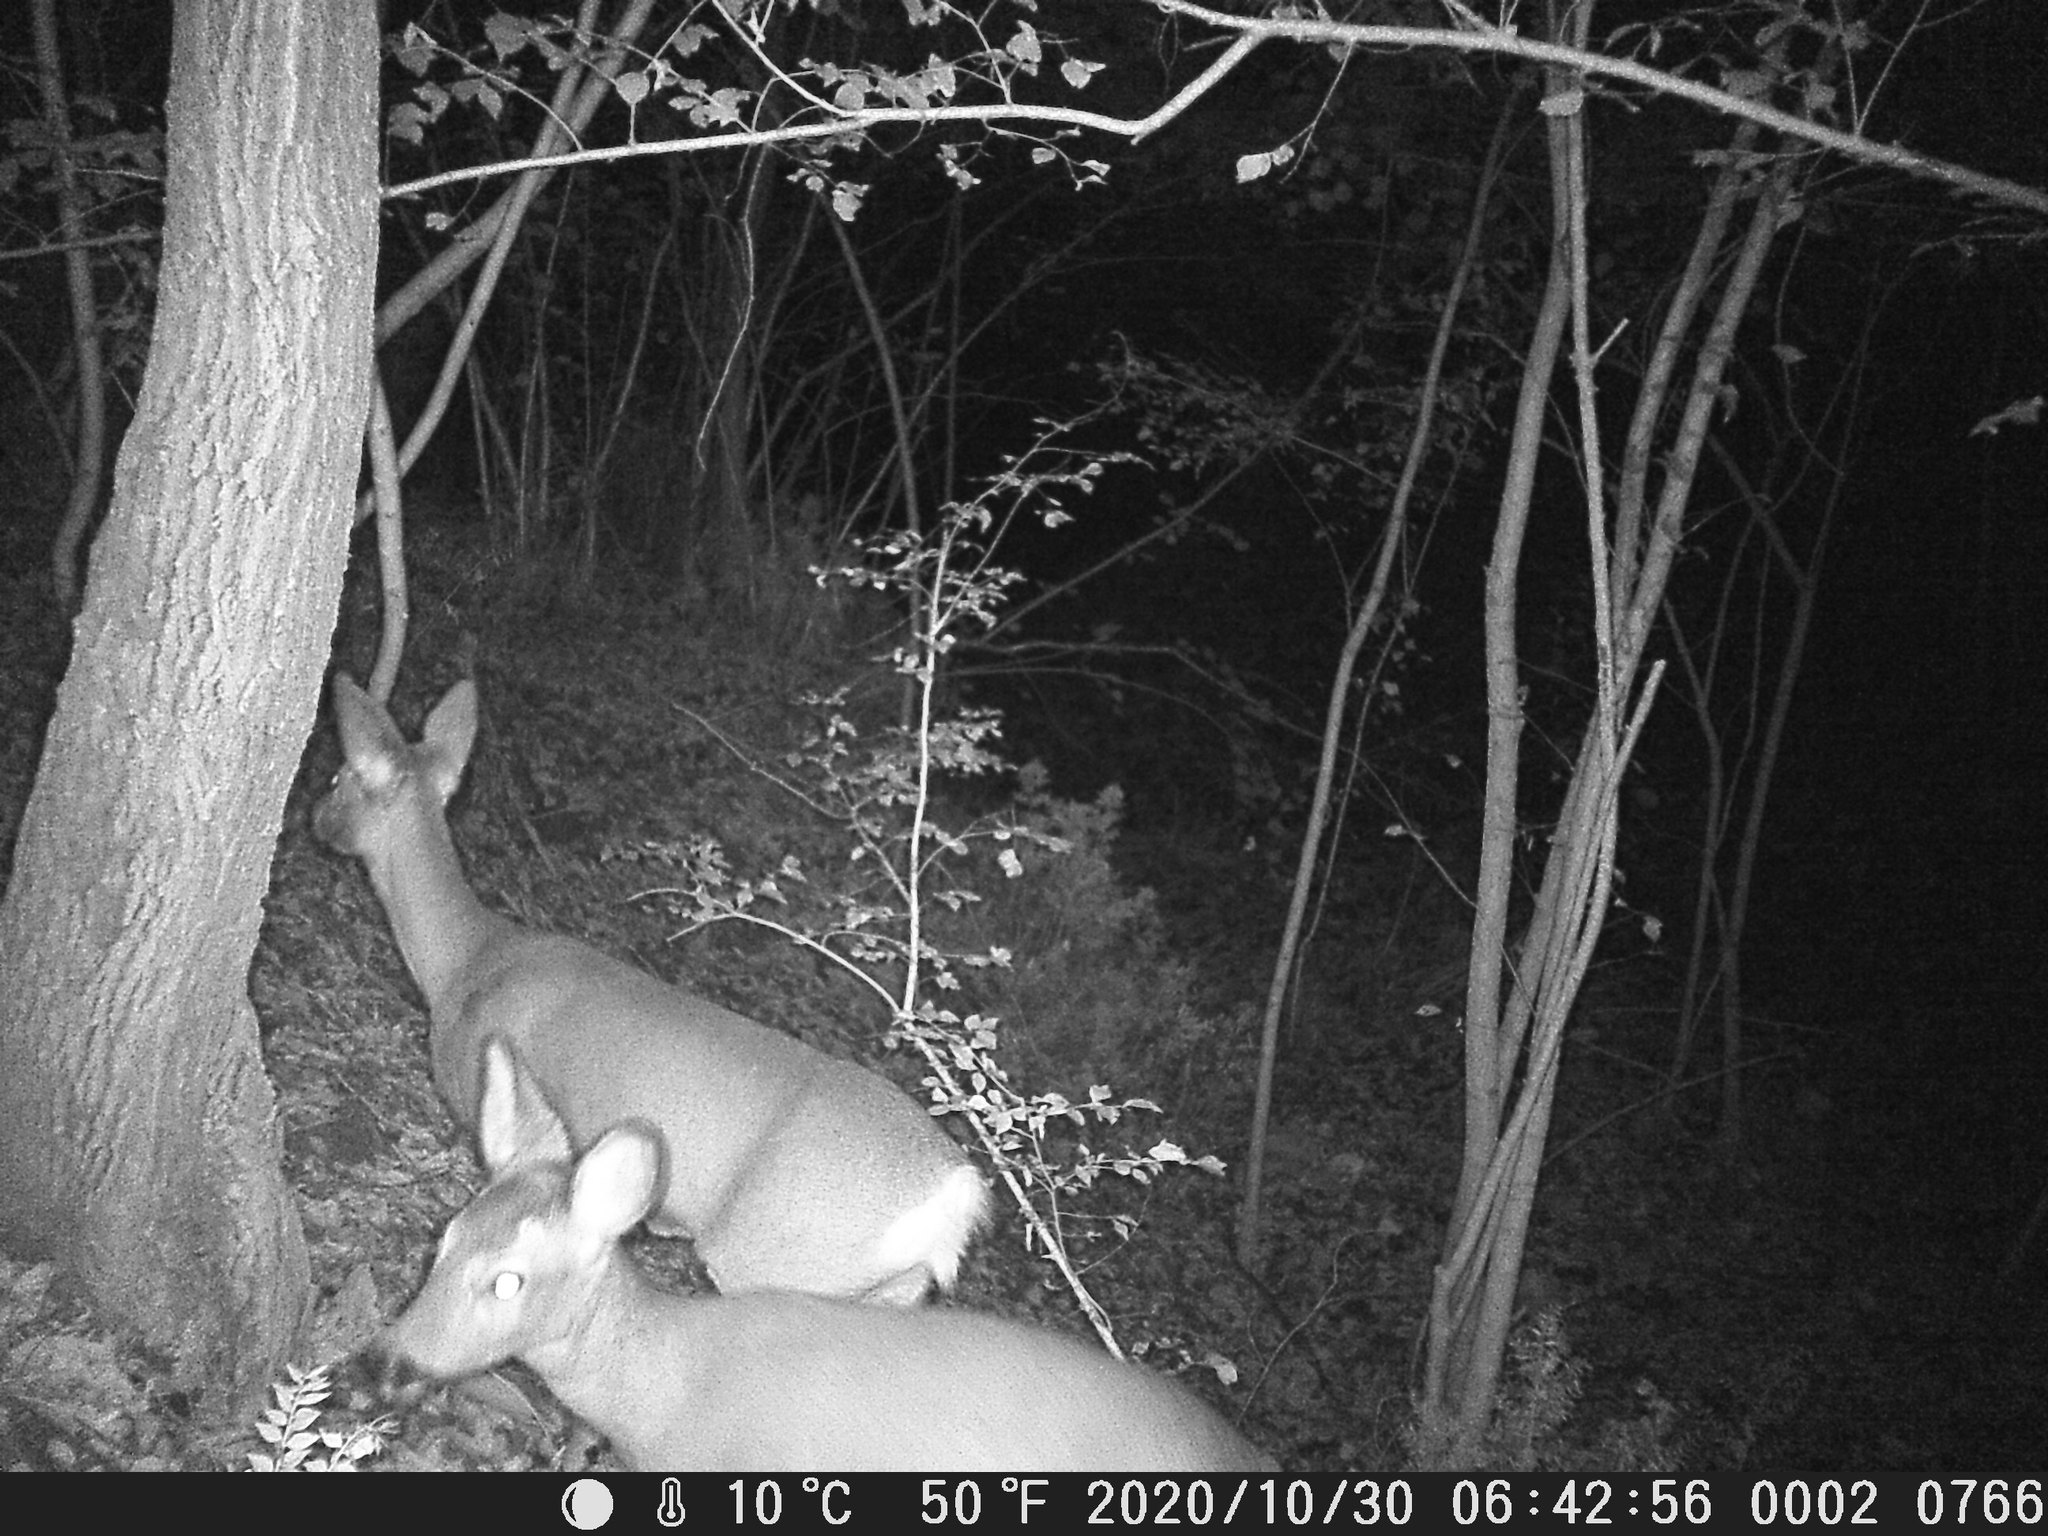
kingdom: Animalia
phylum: Chordata
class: Mammalia
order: Artiodactyla
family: Cervidae
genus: Capreolus
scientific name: Capreolus capreolus
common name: Western roe deer
